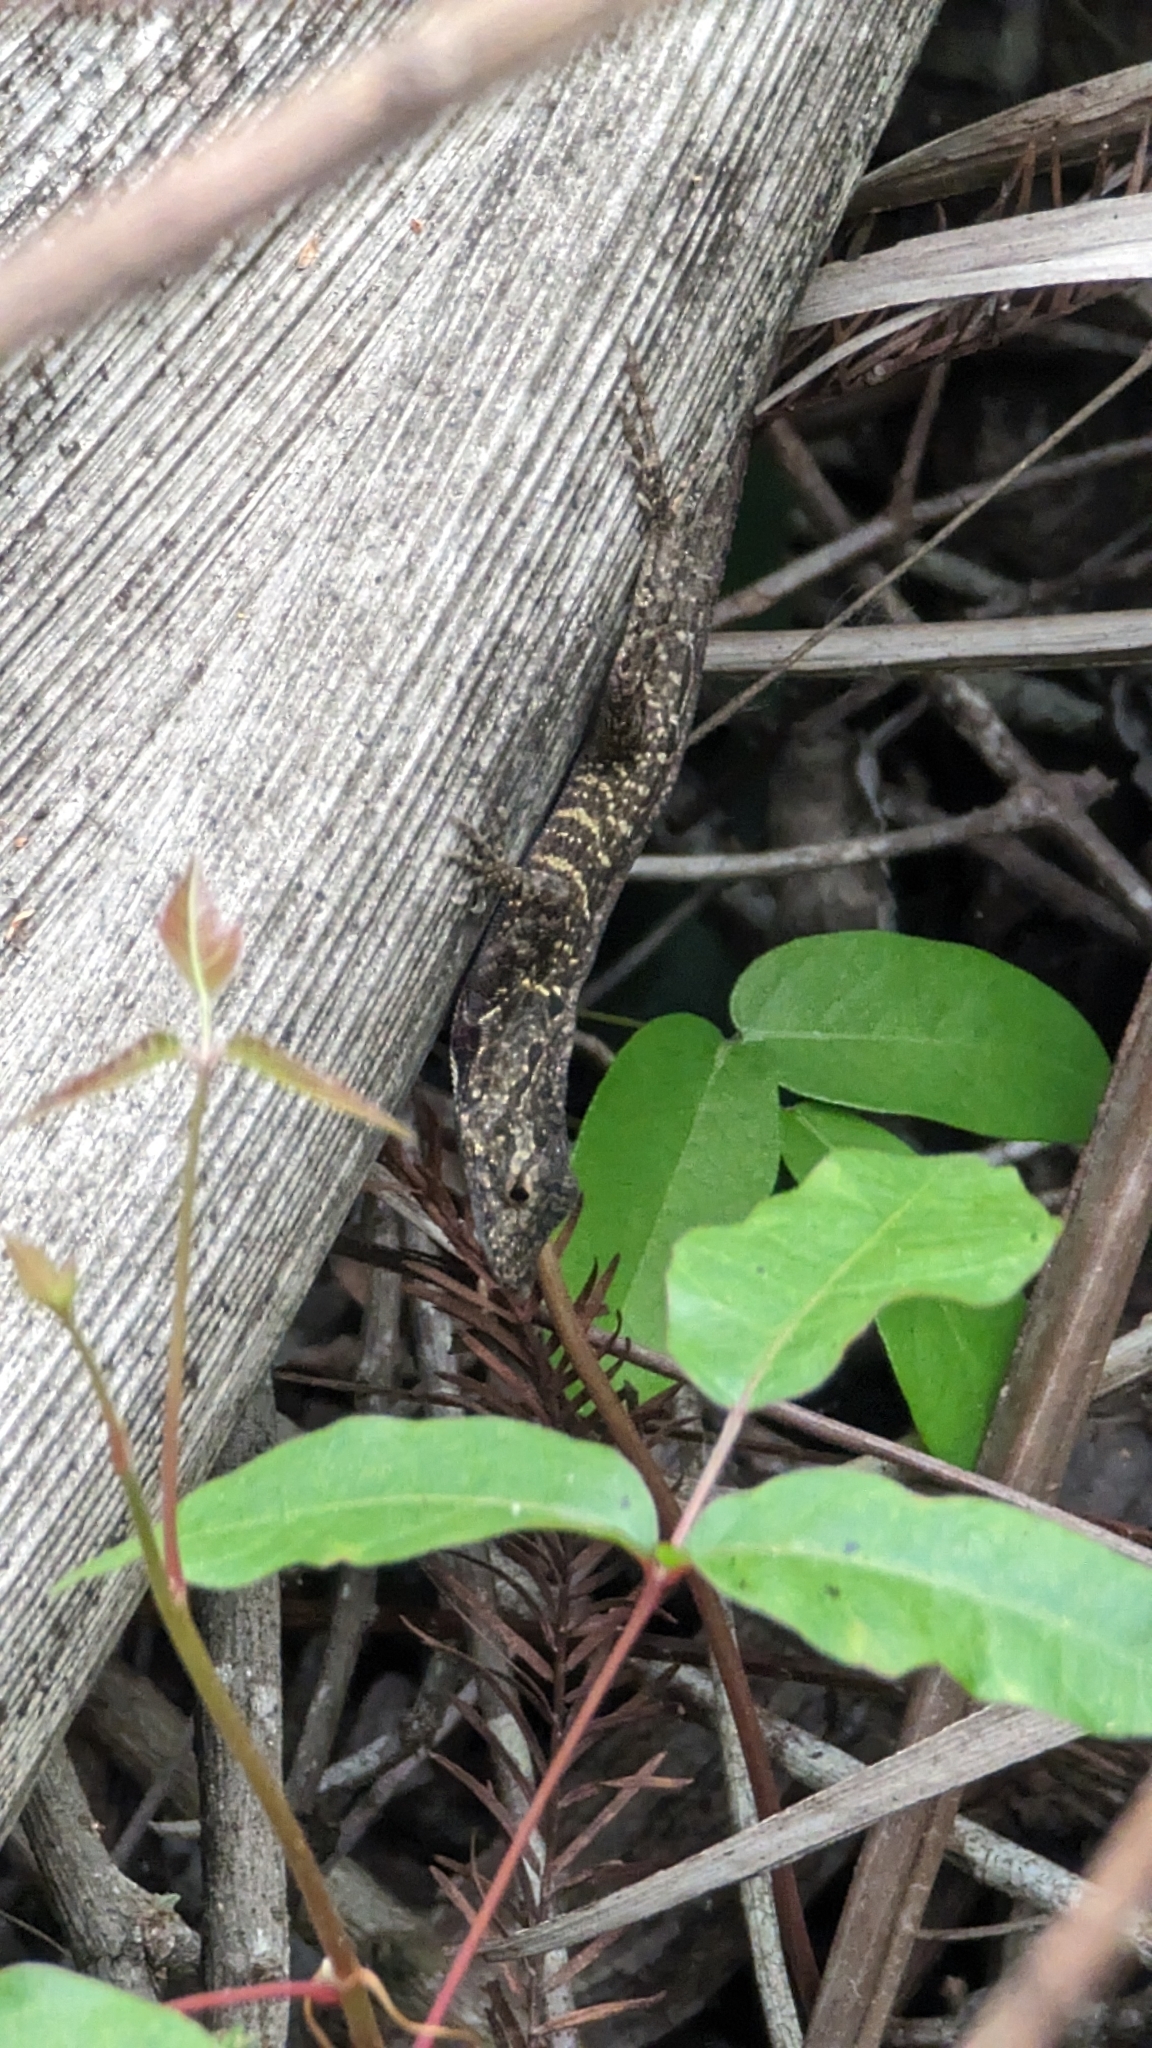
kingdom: Animalia
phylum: Chordata
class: Squamata
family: Dactyloidae
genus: Anolis
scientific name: Anolis sagrei
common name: Brown anole
